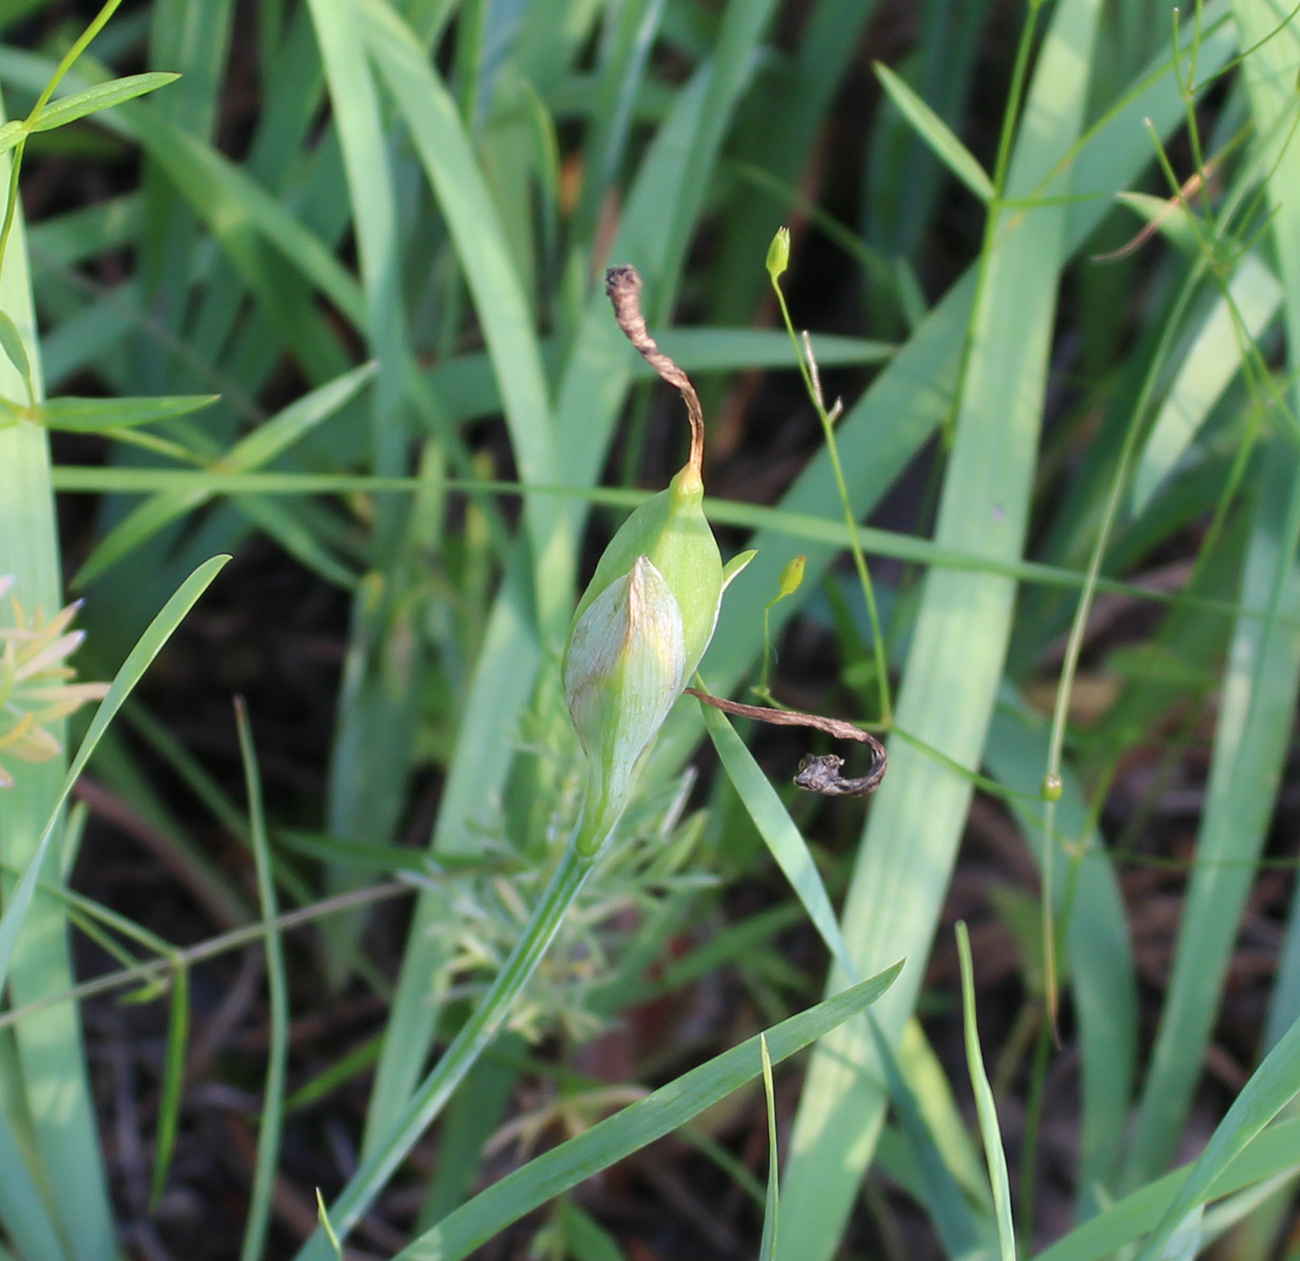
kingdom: Plantae
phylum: Tracheophyta
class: Liliopsida
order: Asparagales
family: Iridaceae
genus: Iris
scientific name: Iris arenaria
